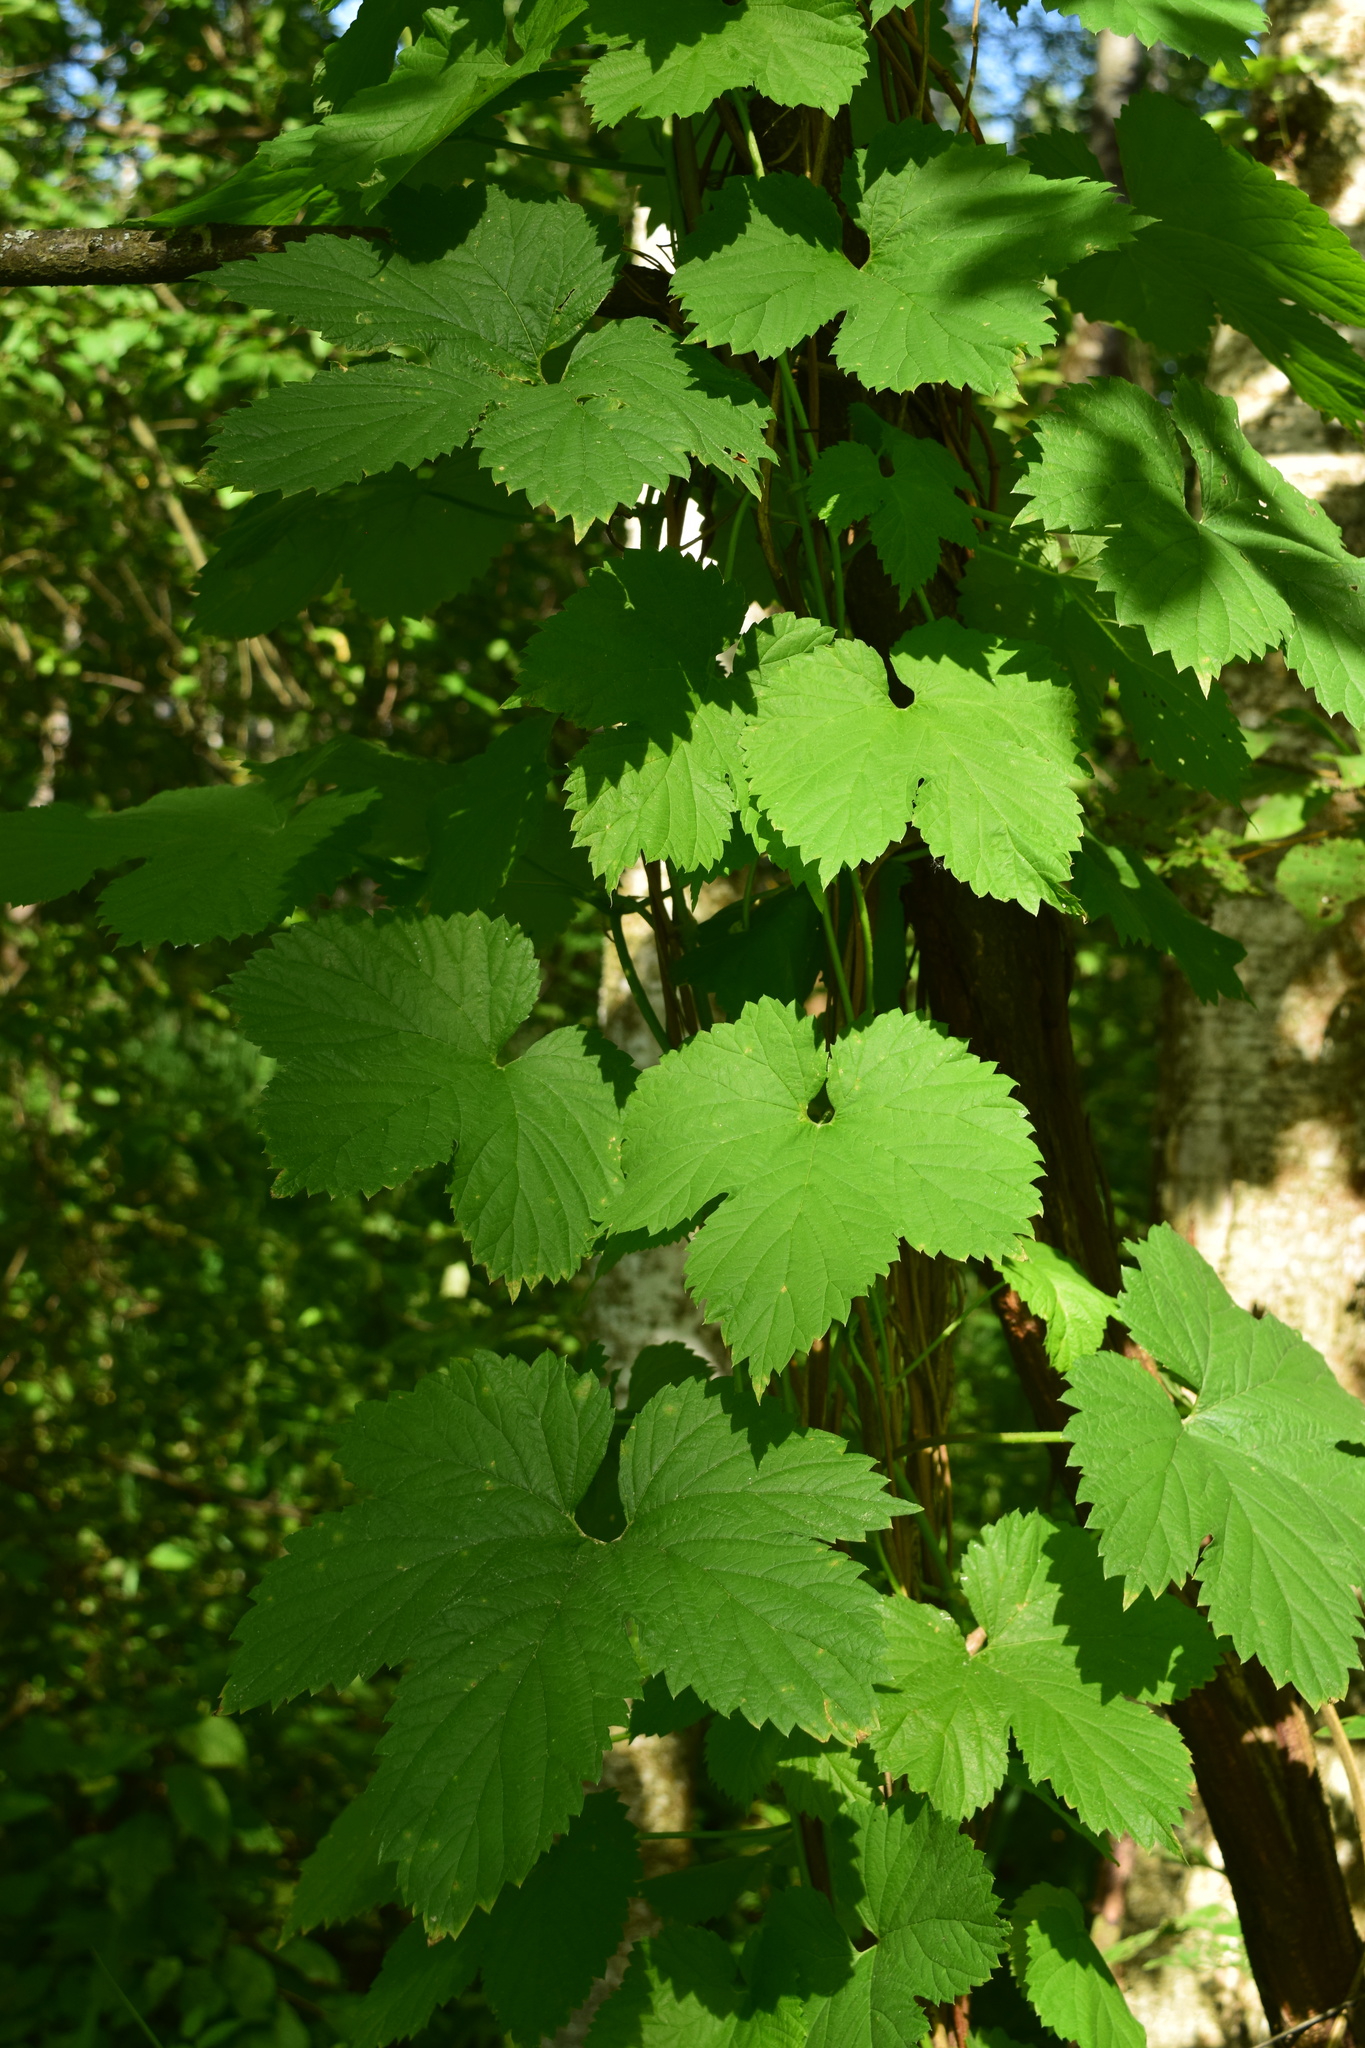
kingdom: Plantae
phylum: Tracheophyta
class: Magnoliopsida
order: Rosales
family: Cannabaceae
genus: Humulus
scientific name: Humulus lupulus
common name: Hop
